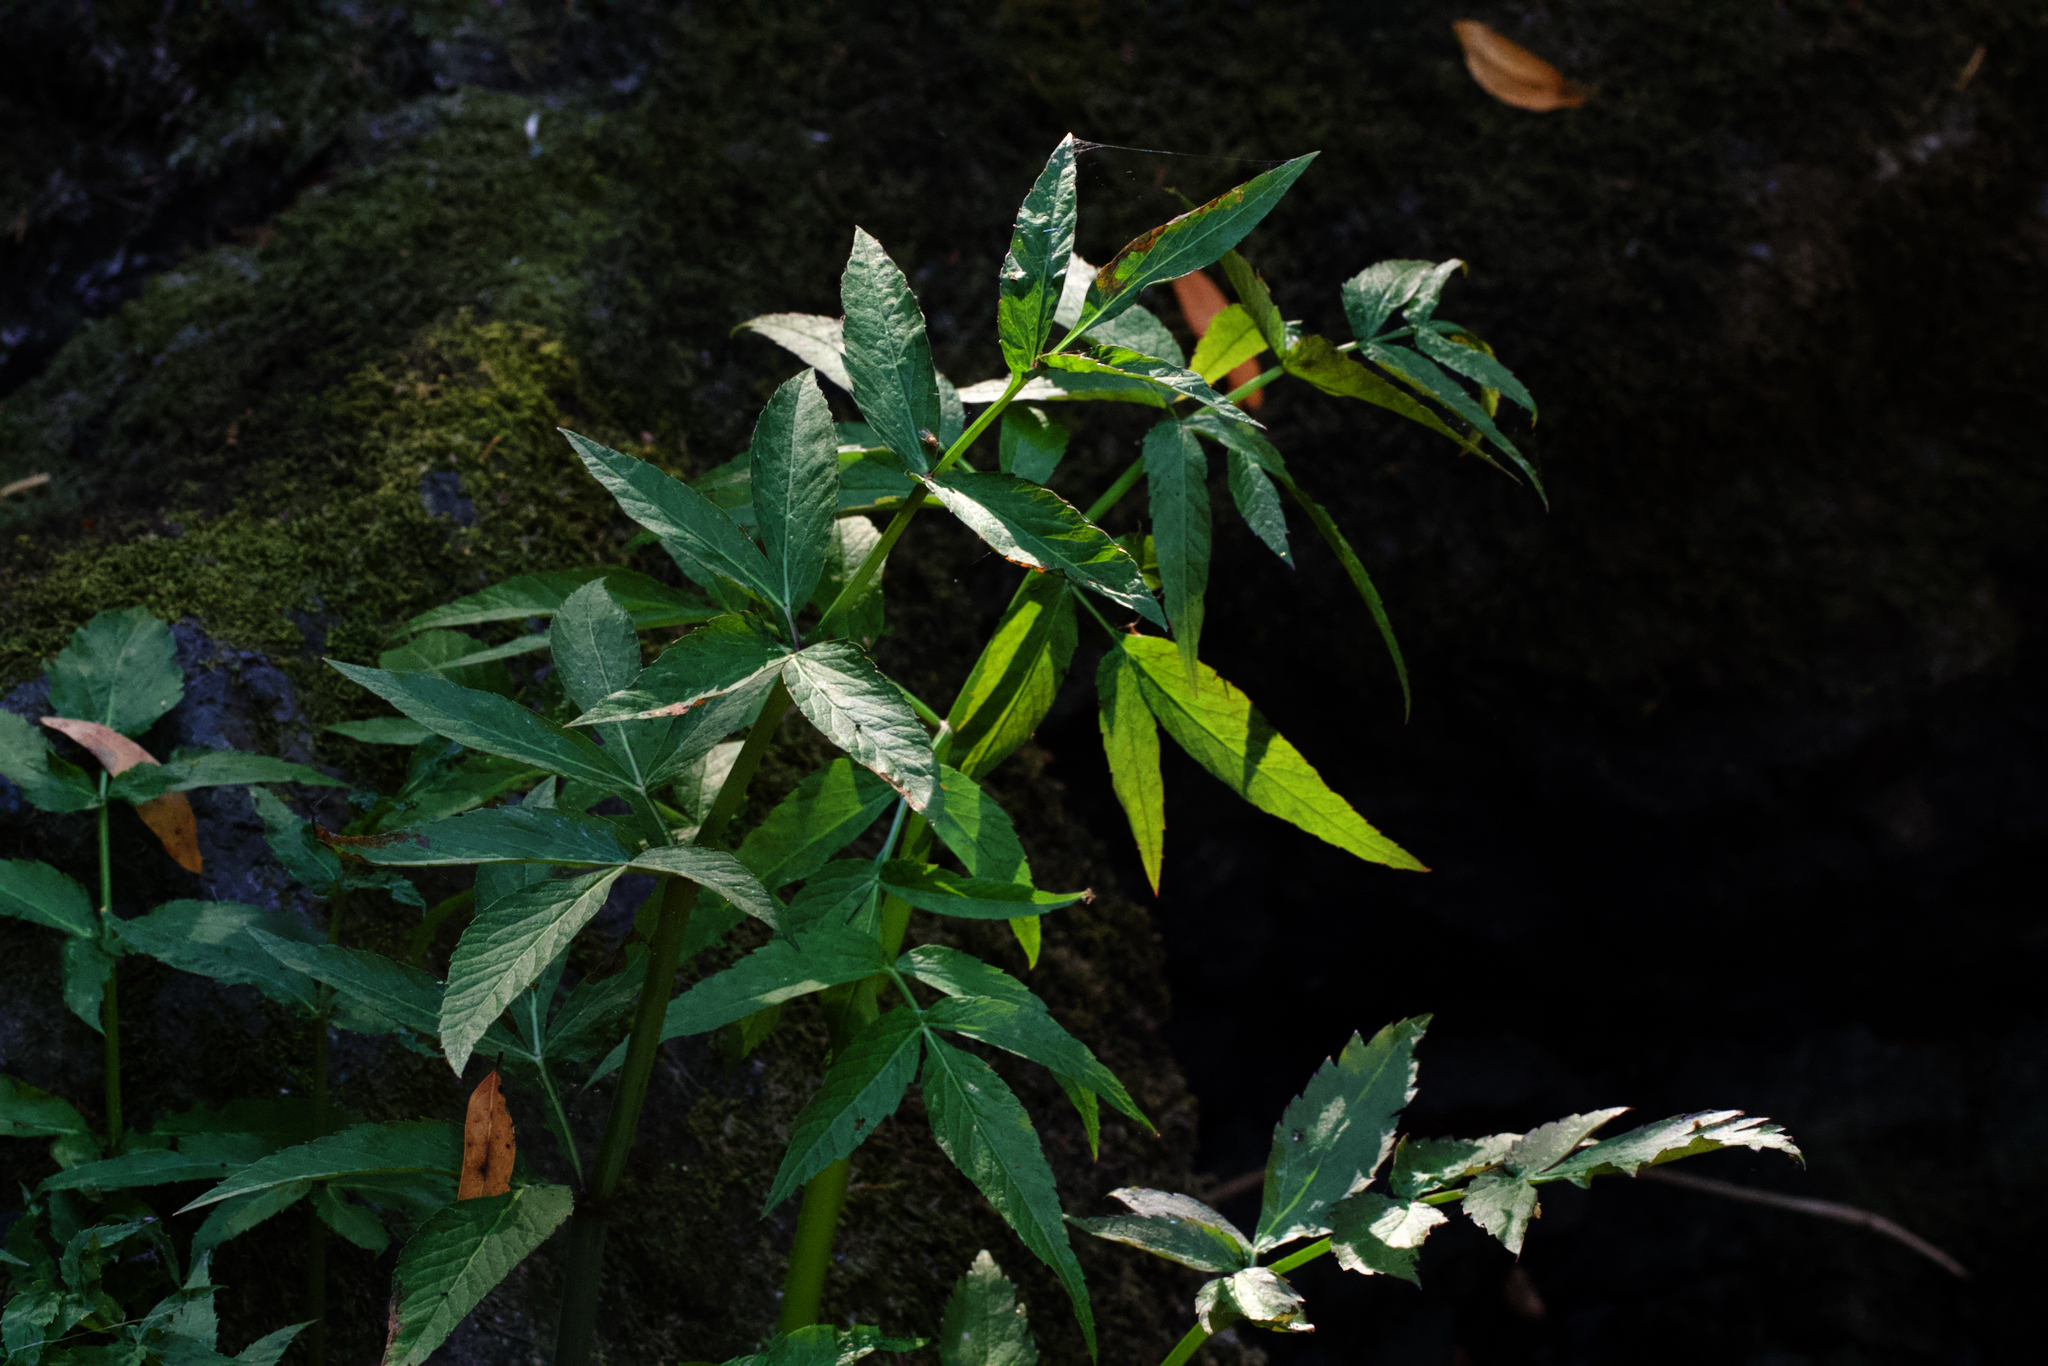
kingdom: Plantae
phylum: Tracheophyta
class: Magnoliopsida
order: Apiales
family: Apiaceae
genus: Cicuta
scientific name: Cicuta douglasii
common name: Western water-hemlock
